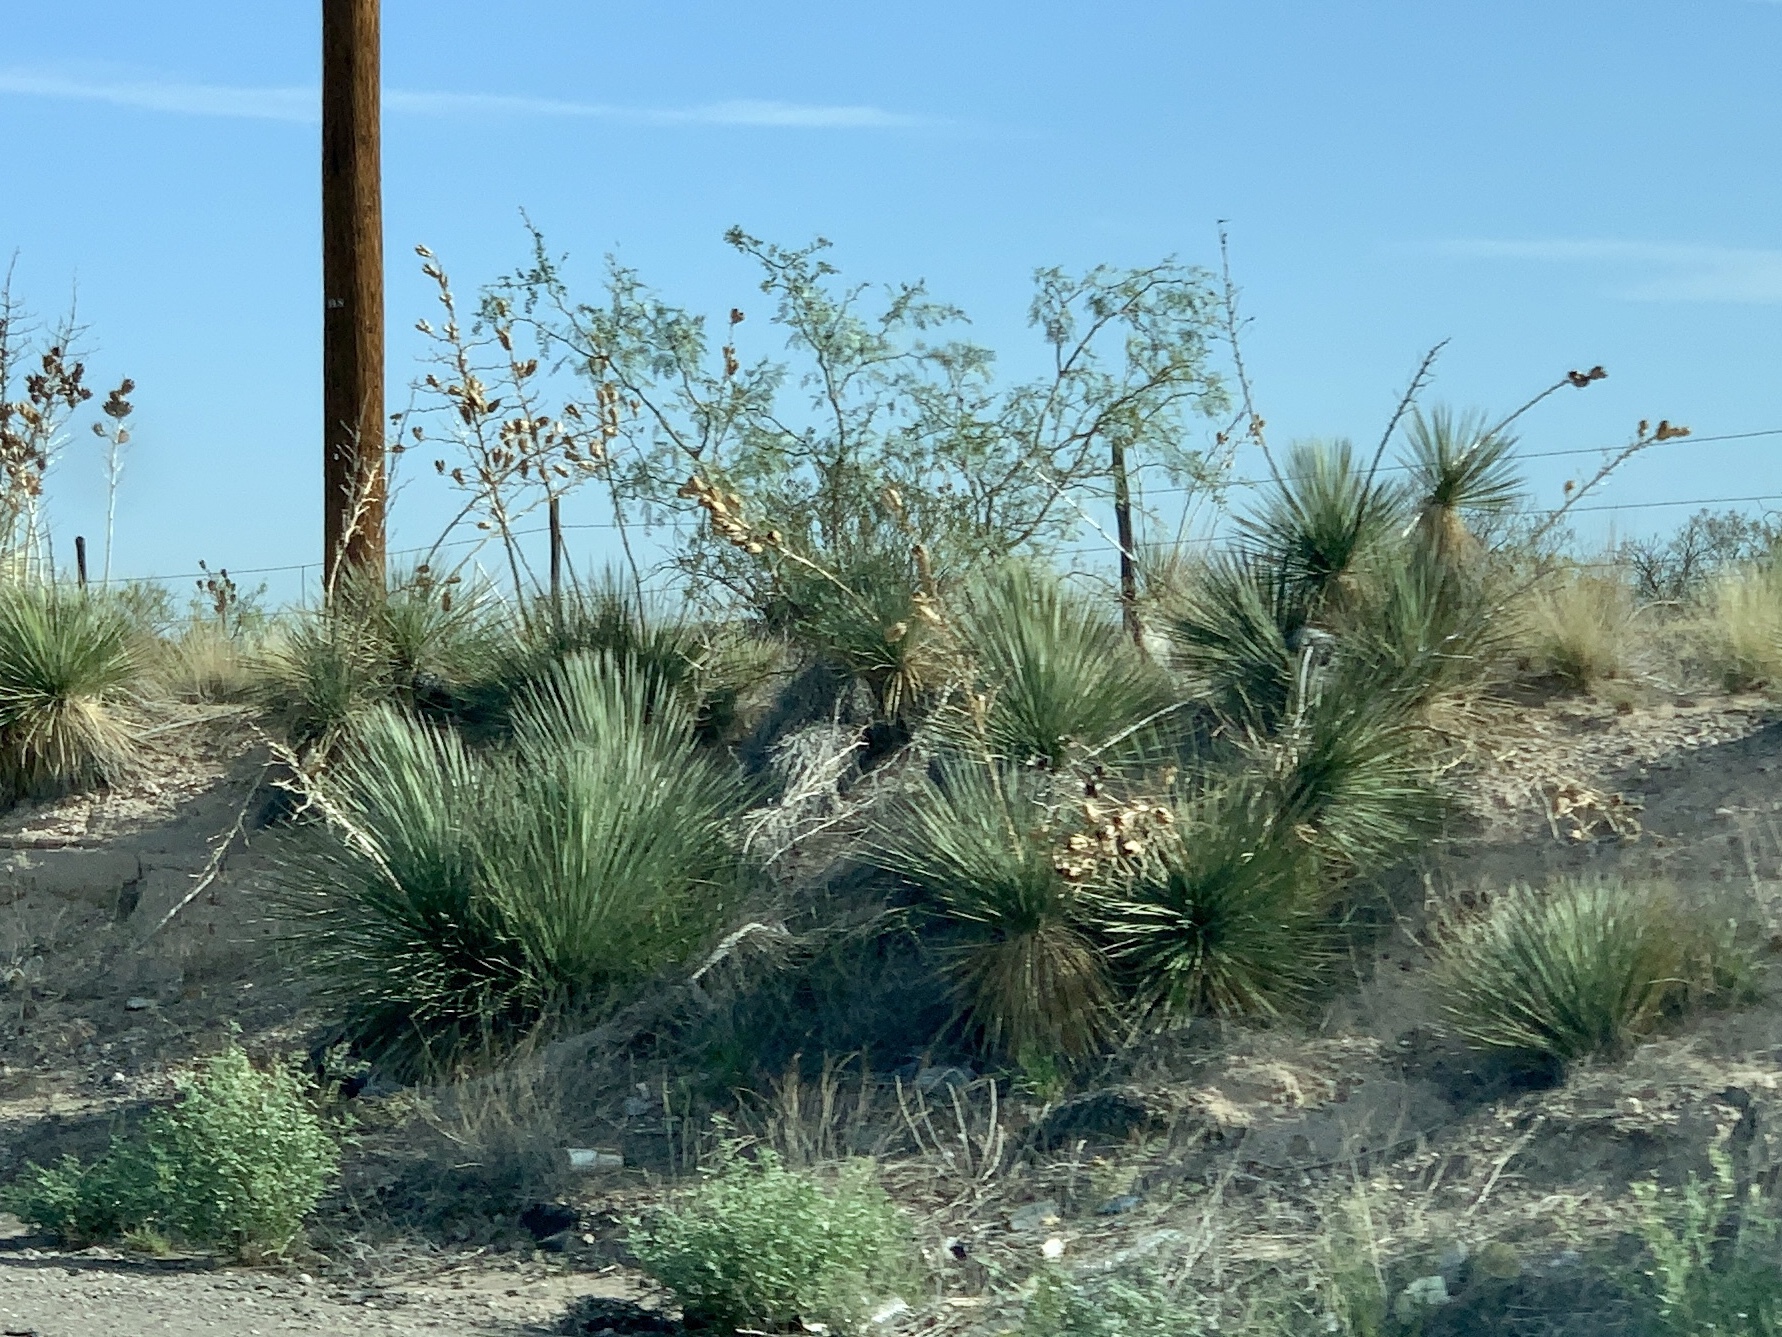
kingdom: Plantae
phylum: Tracheophyta
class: Liliopsida
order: Asparagales
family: Asparagaceae
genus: Yucca
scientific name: Yucca elata
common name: Palmella
